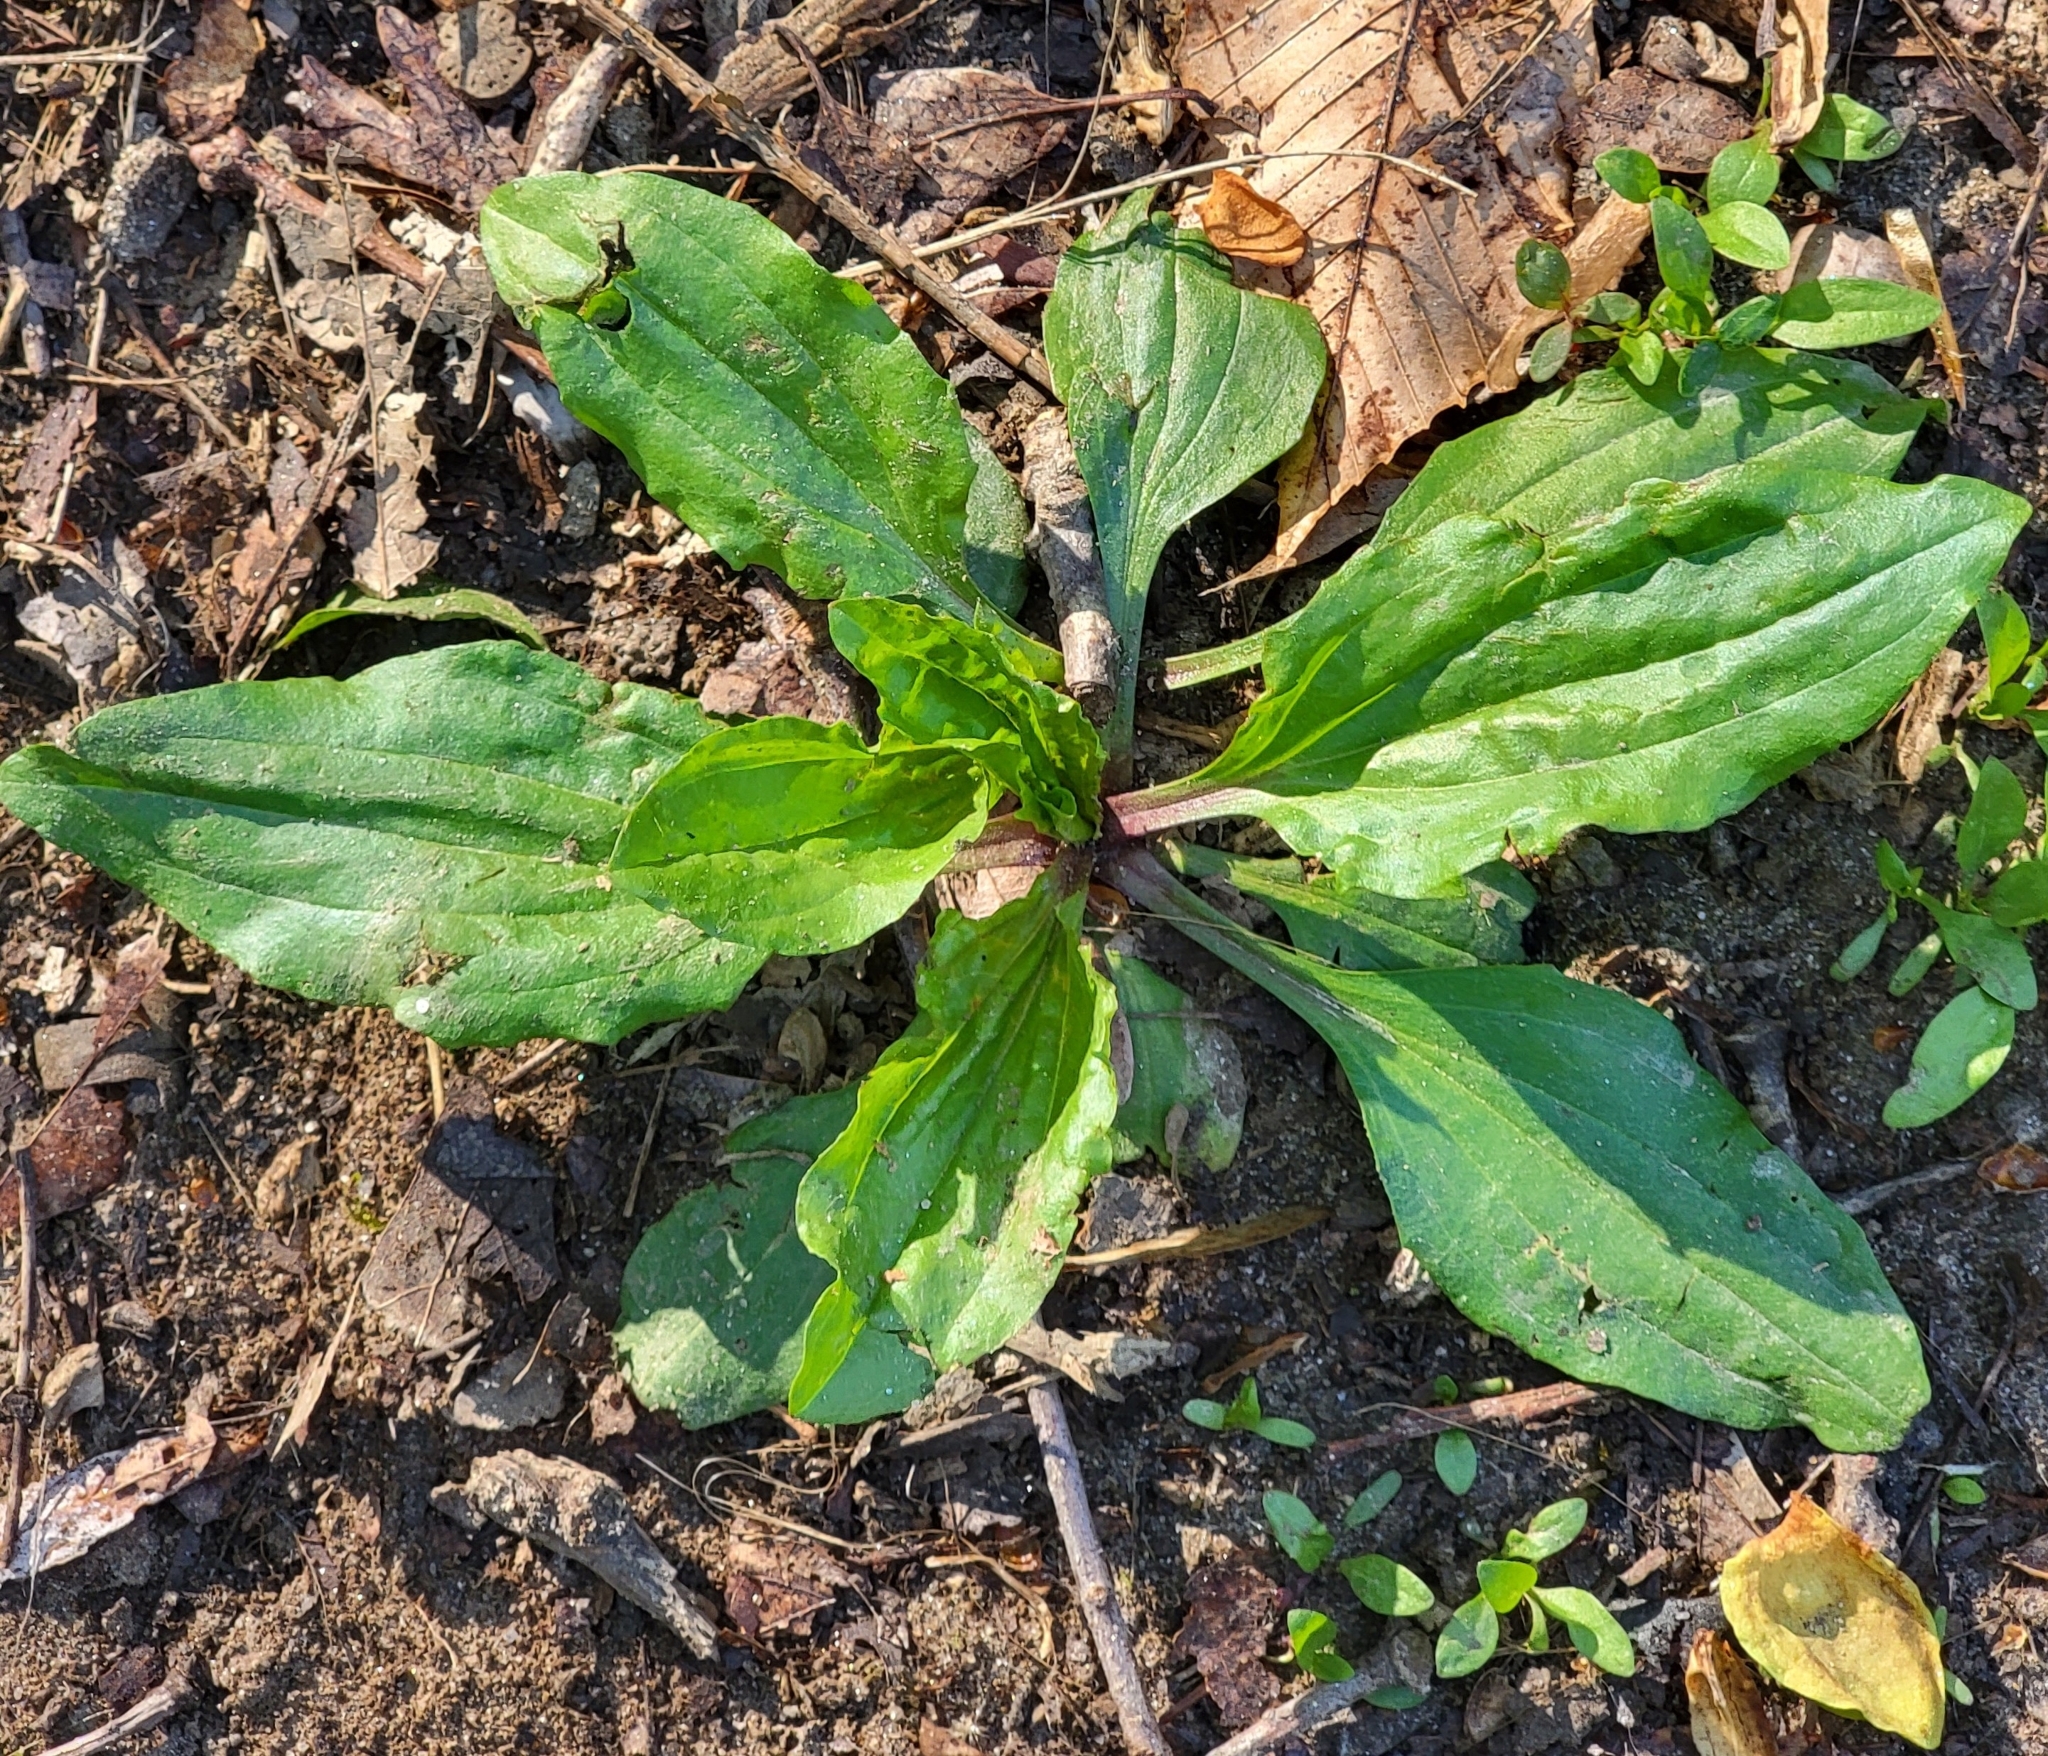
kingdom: Plantae
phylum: Tracheophyta
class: Magnoliopsida
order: Lamiales
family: Plantaginaceae
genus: Plantago
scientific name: Plantago rugelii
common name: American plantain
